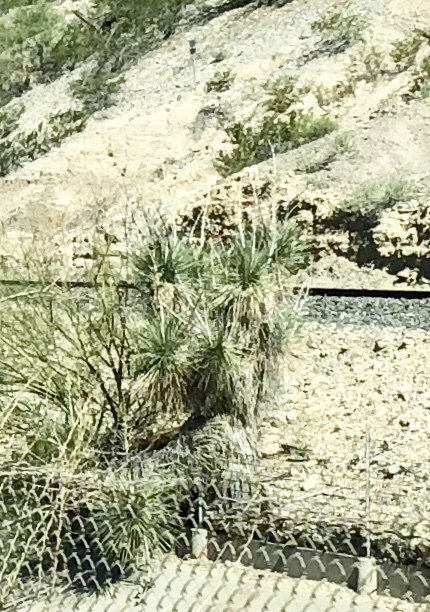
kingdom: Plantae
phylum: Tracheophyta
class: Liliopsida
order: Asparagales
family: Asparagaceae
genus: Yucca
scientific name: Yucca elata
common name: Palmella
